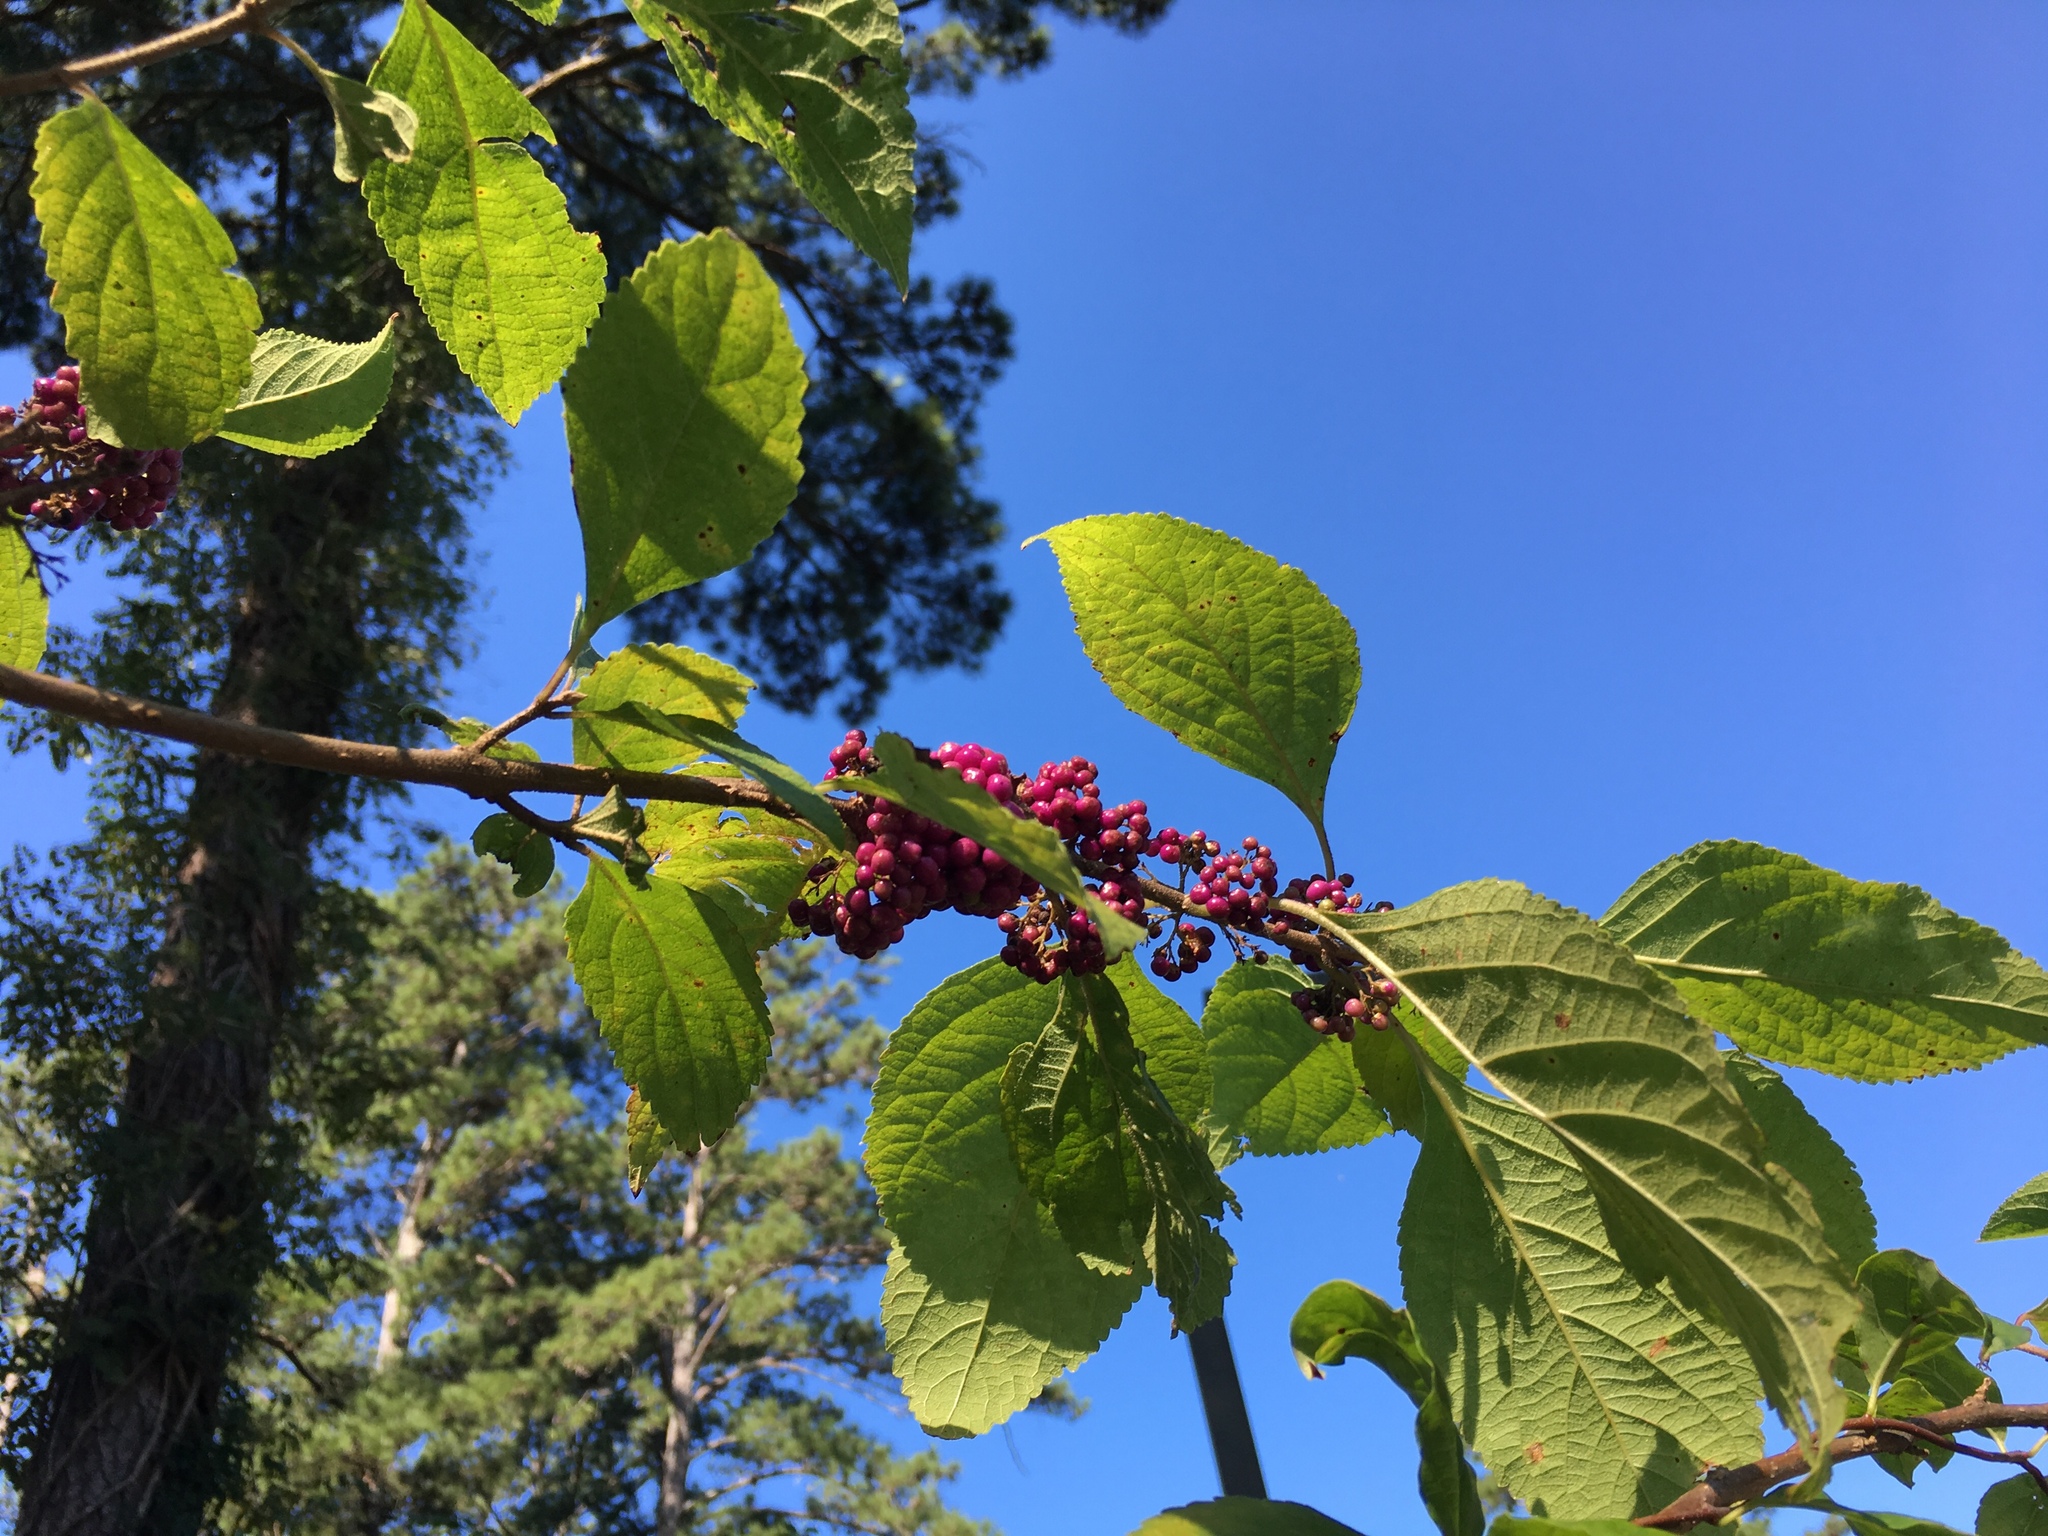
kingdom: Plantae
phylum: Tracheophyta
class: Magnoliopsida
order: Lamiales
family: Lamiaceae
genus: Callicarpa
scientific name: Callicarpa americana
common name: American beautyberry
